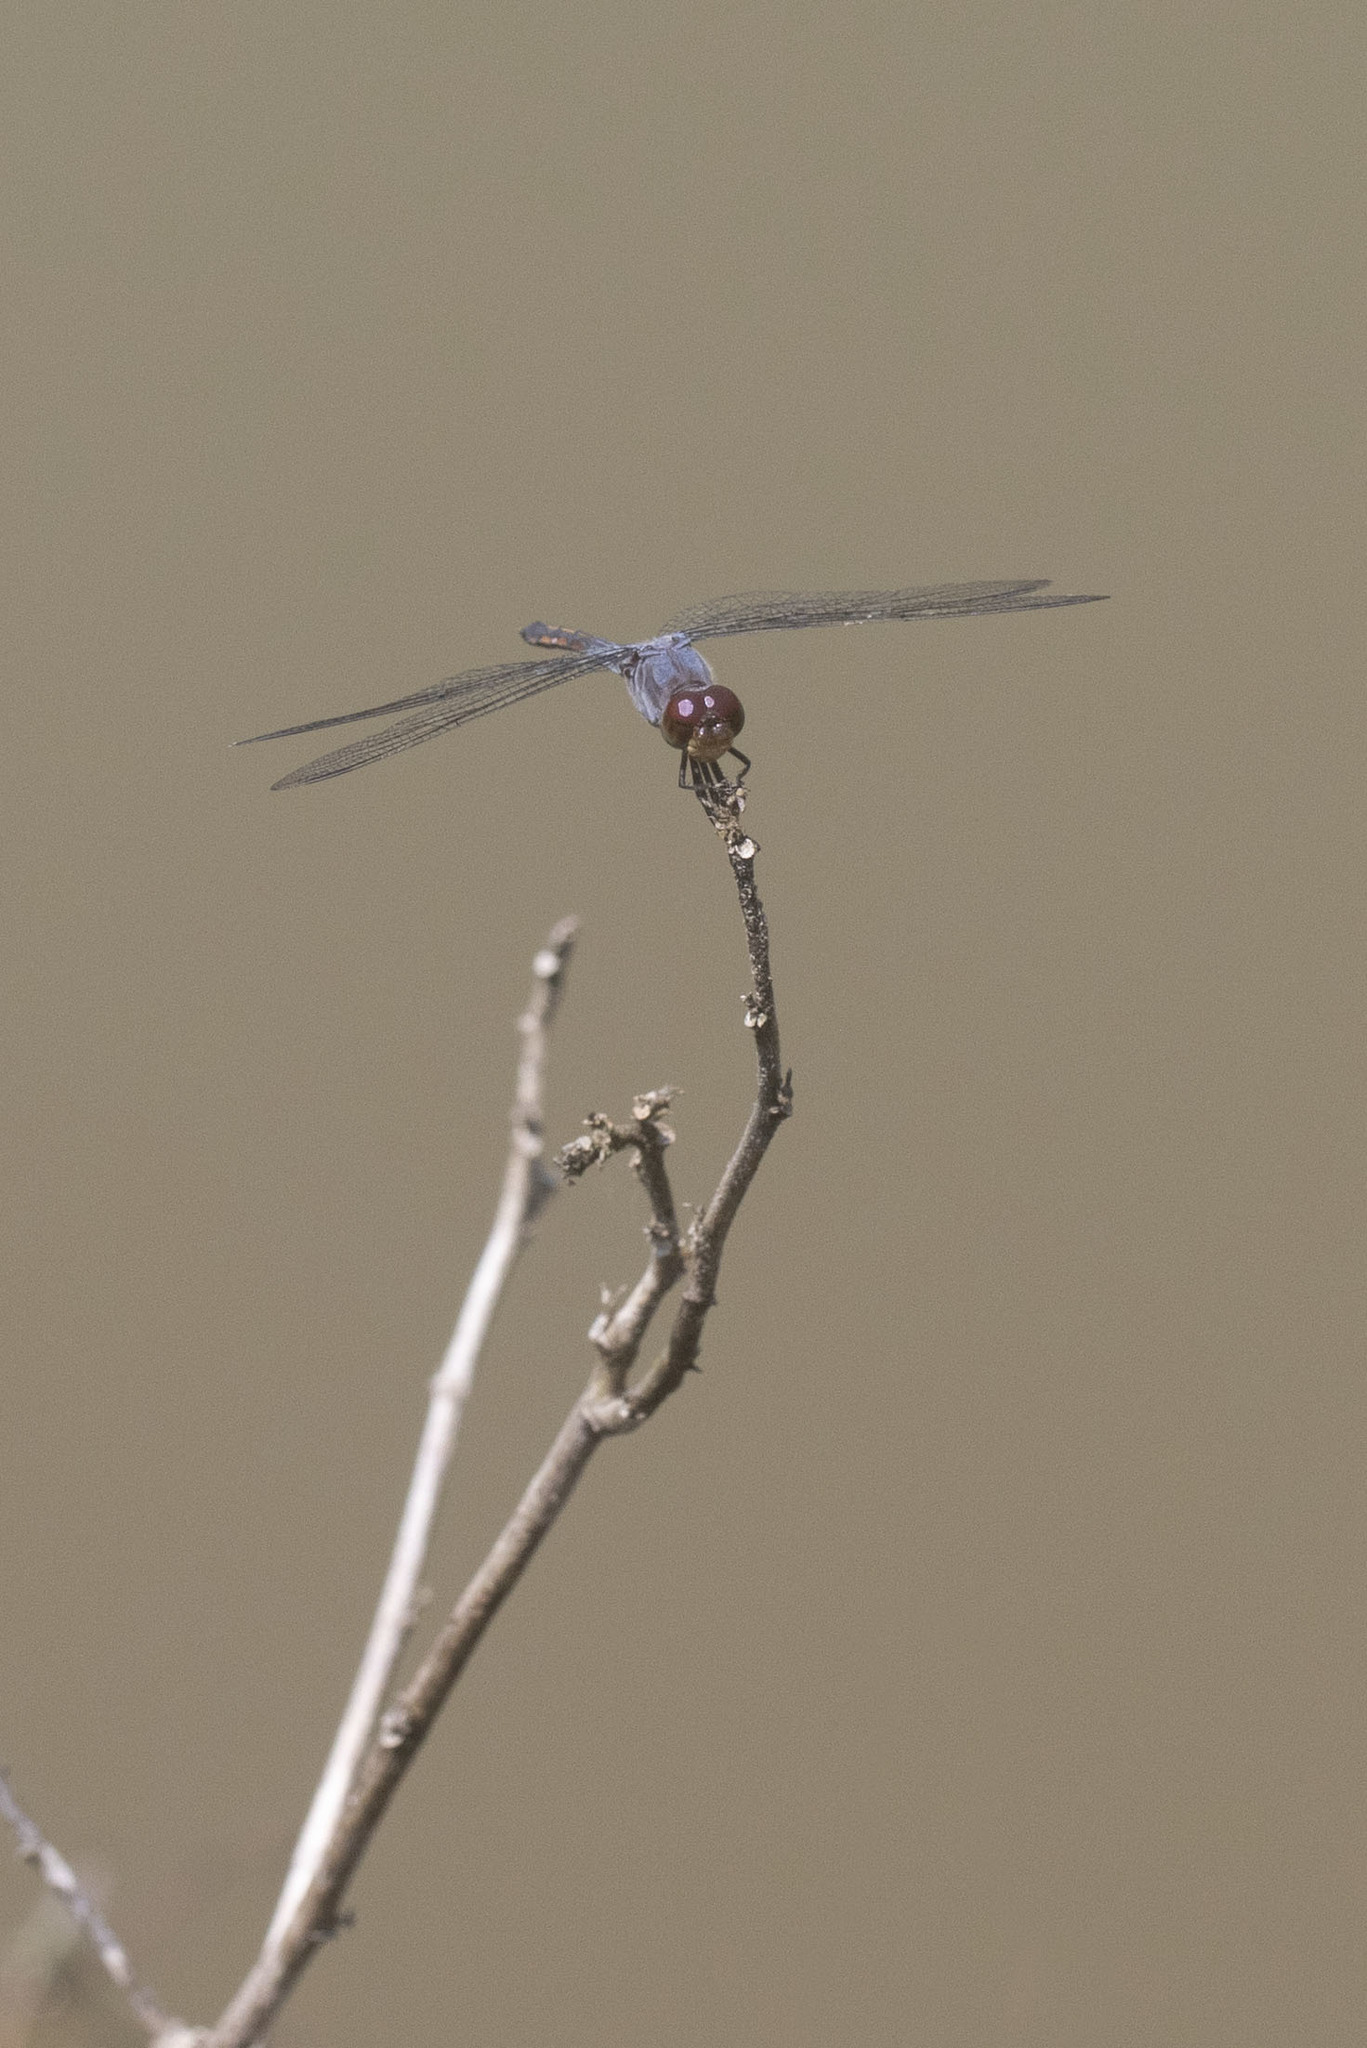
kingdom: Animalia
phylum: Arthropoda
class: Insecta
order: Odonata
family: Libellulidae
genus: Potamarcha
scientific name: Potamarcha congener
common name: Blue chaser
